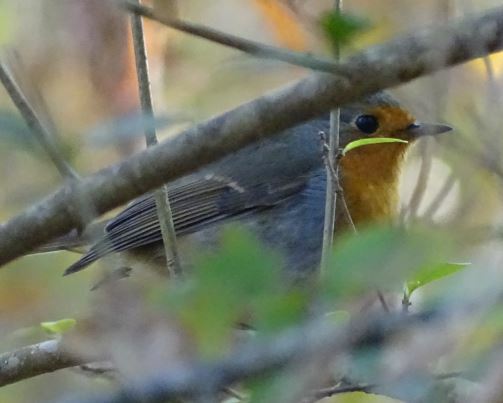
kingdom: Animalia
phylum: Chordata
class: Aves
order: Passeriformes
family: Muscicapidae
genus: Erithacus
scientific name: Erithacus rubecula
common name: European robin
